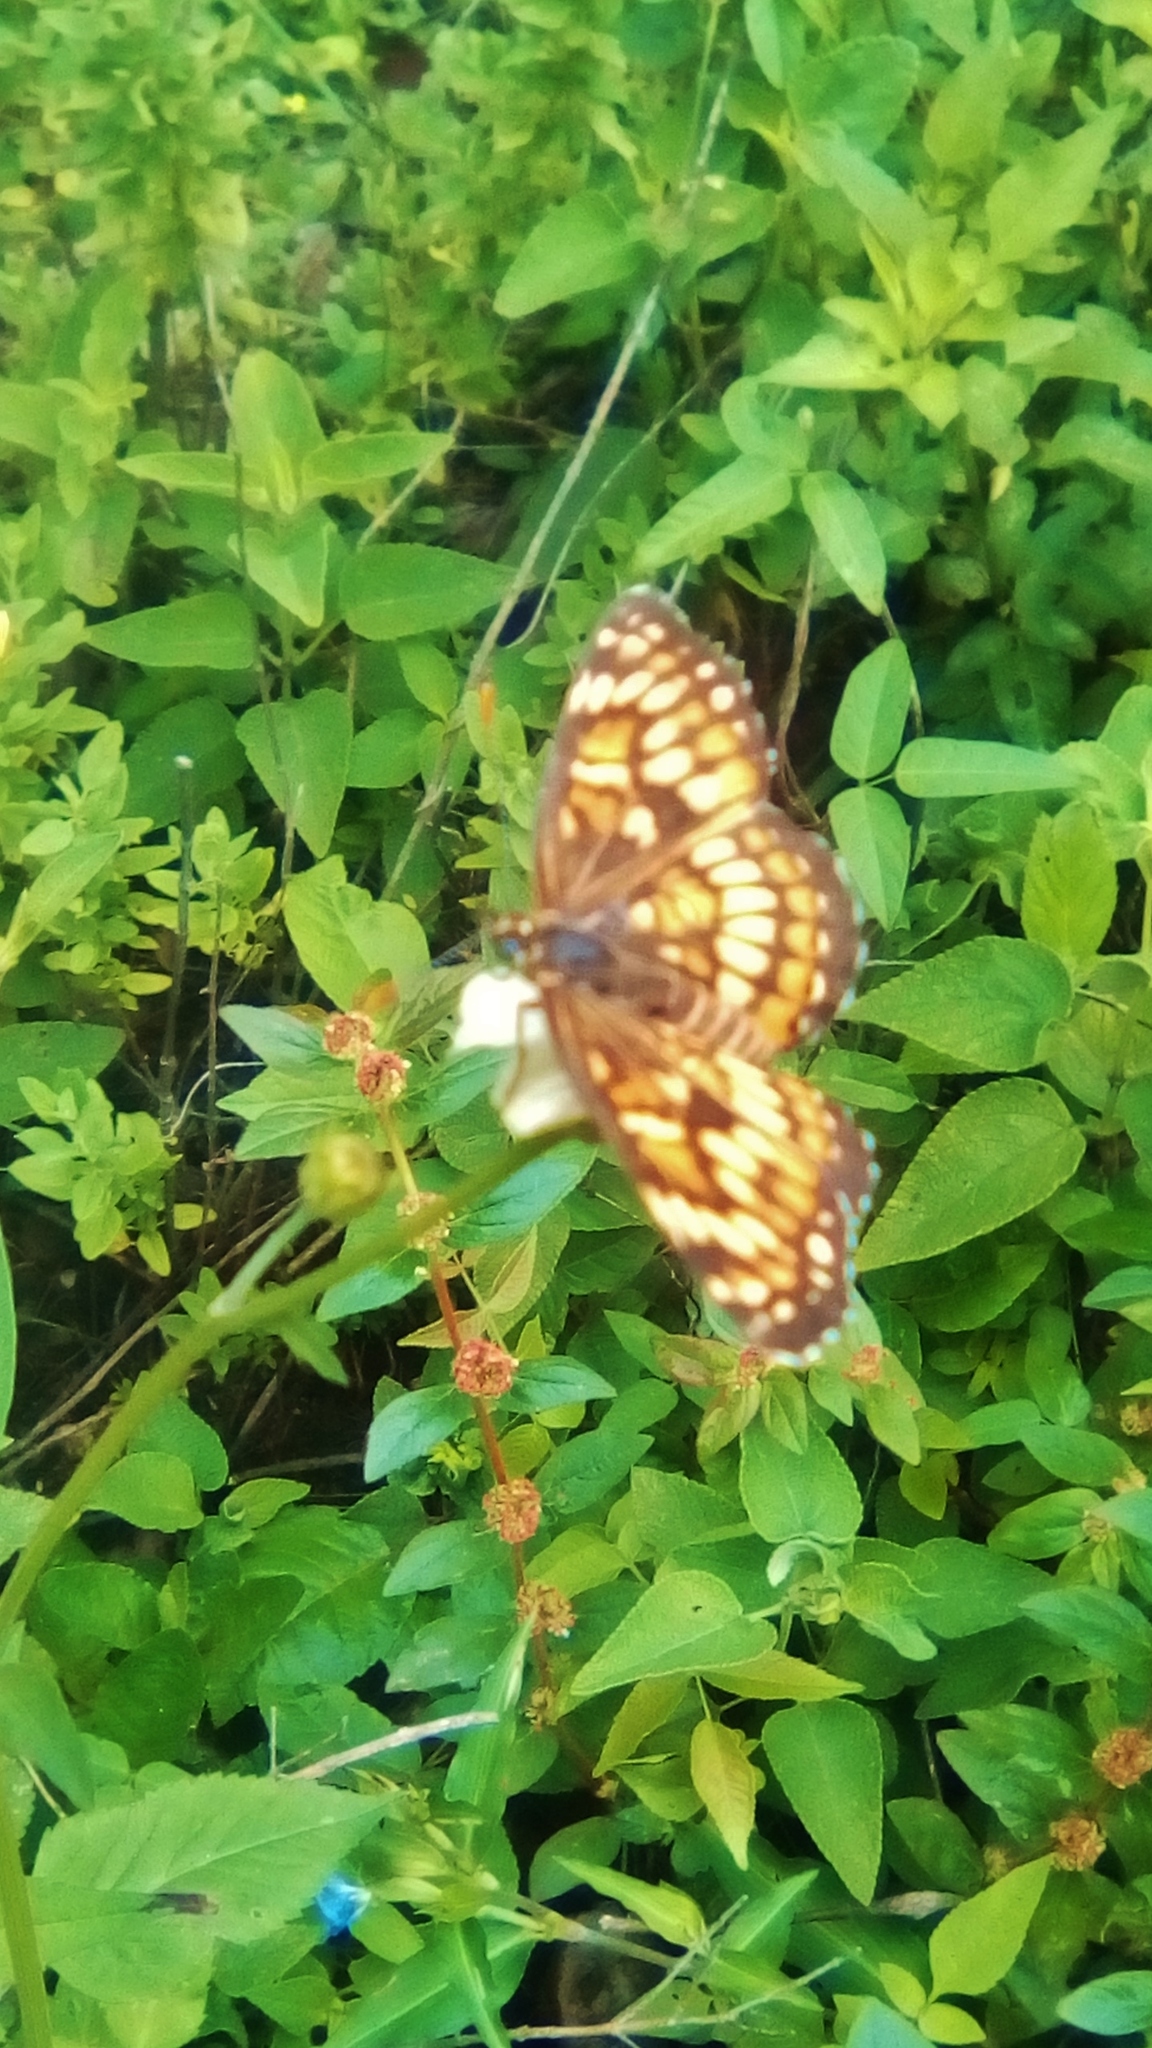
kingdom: Animalia
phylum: Arthropoda
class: Insecta
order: Lepidoptera
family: Nymphalidae
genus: Thessalia
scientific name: Thessalia theona
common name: Nymphalid moth
